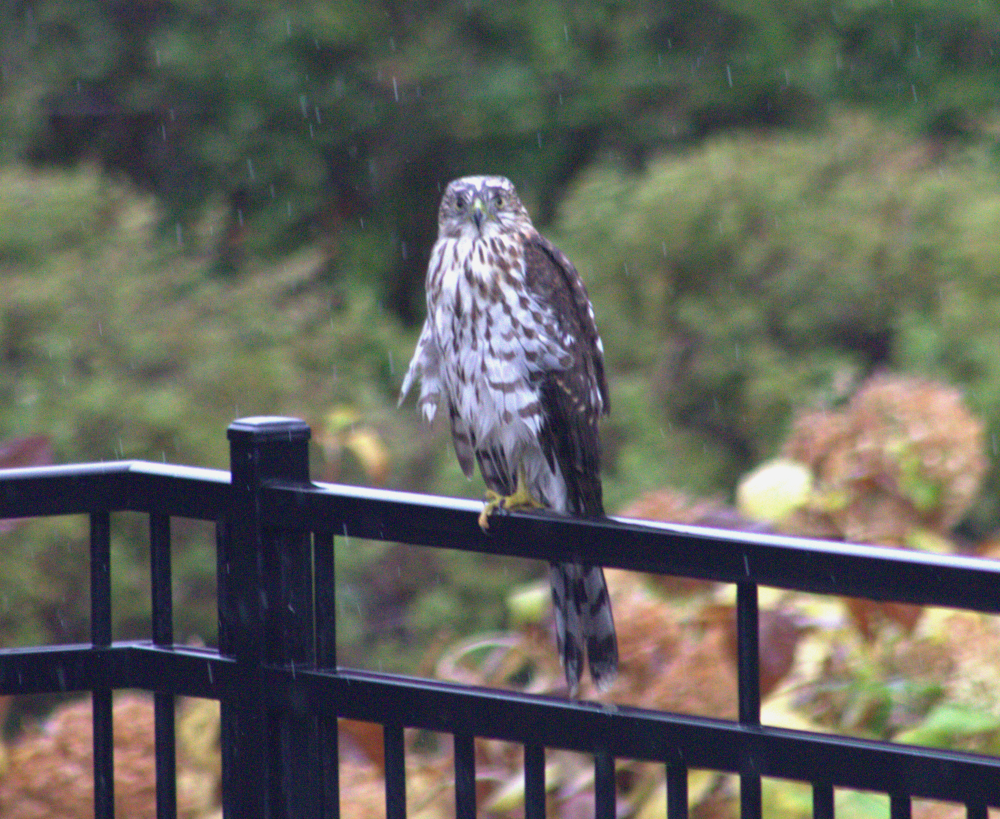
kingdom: Animalia
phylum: Chordata
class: Aves
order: Accipitriformes
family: Accipitridae
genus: Accipiter
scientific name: Accipiter cooperii
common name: Cooper's hawk
